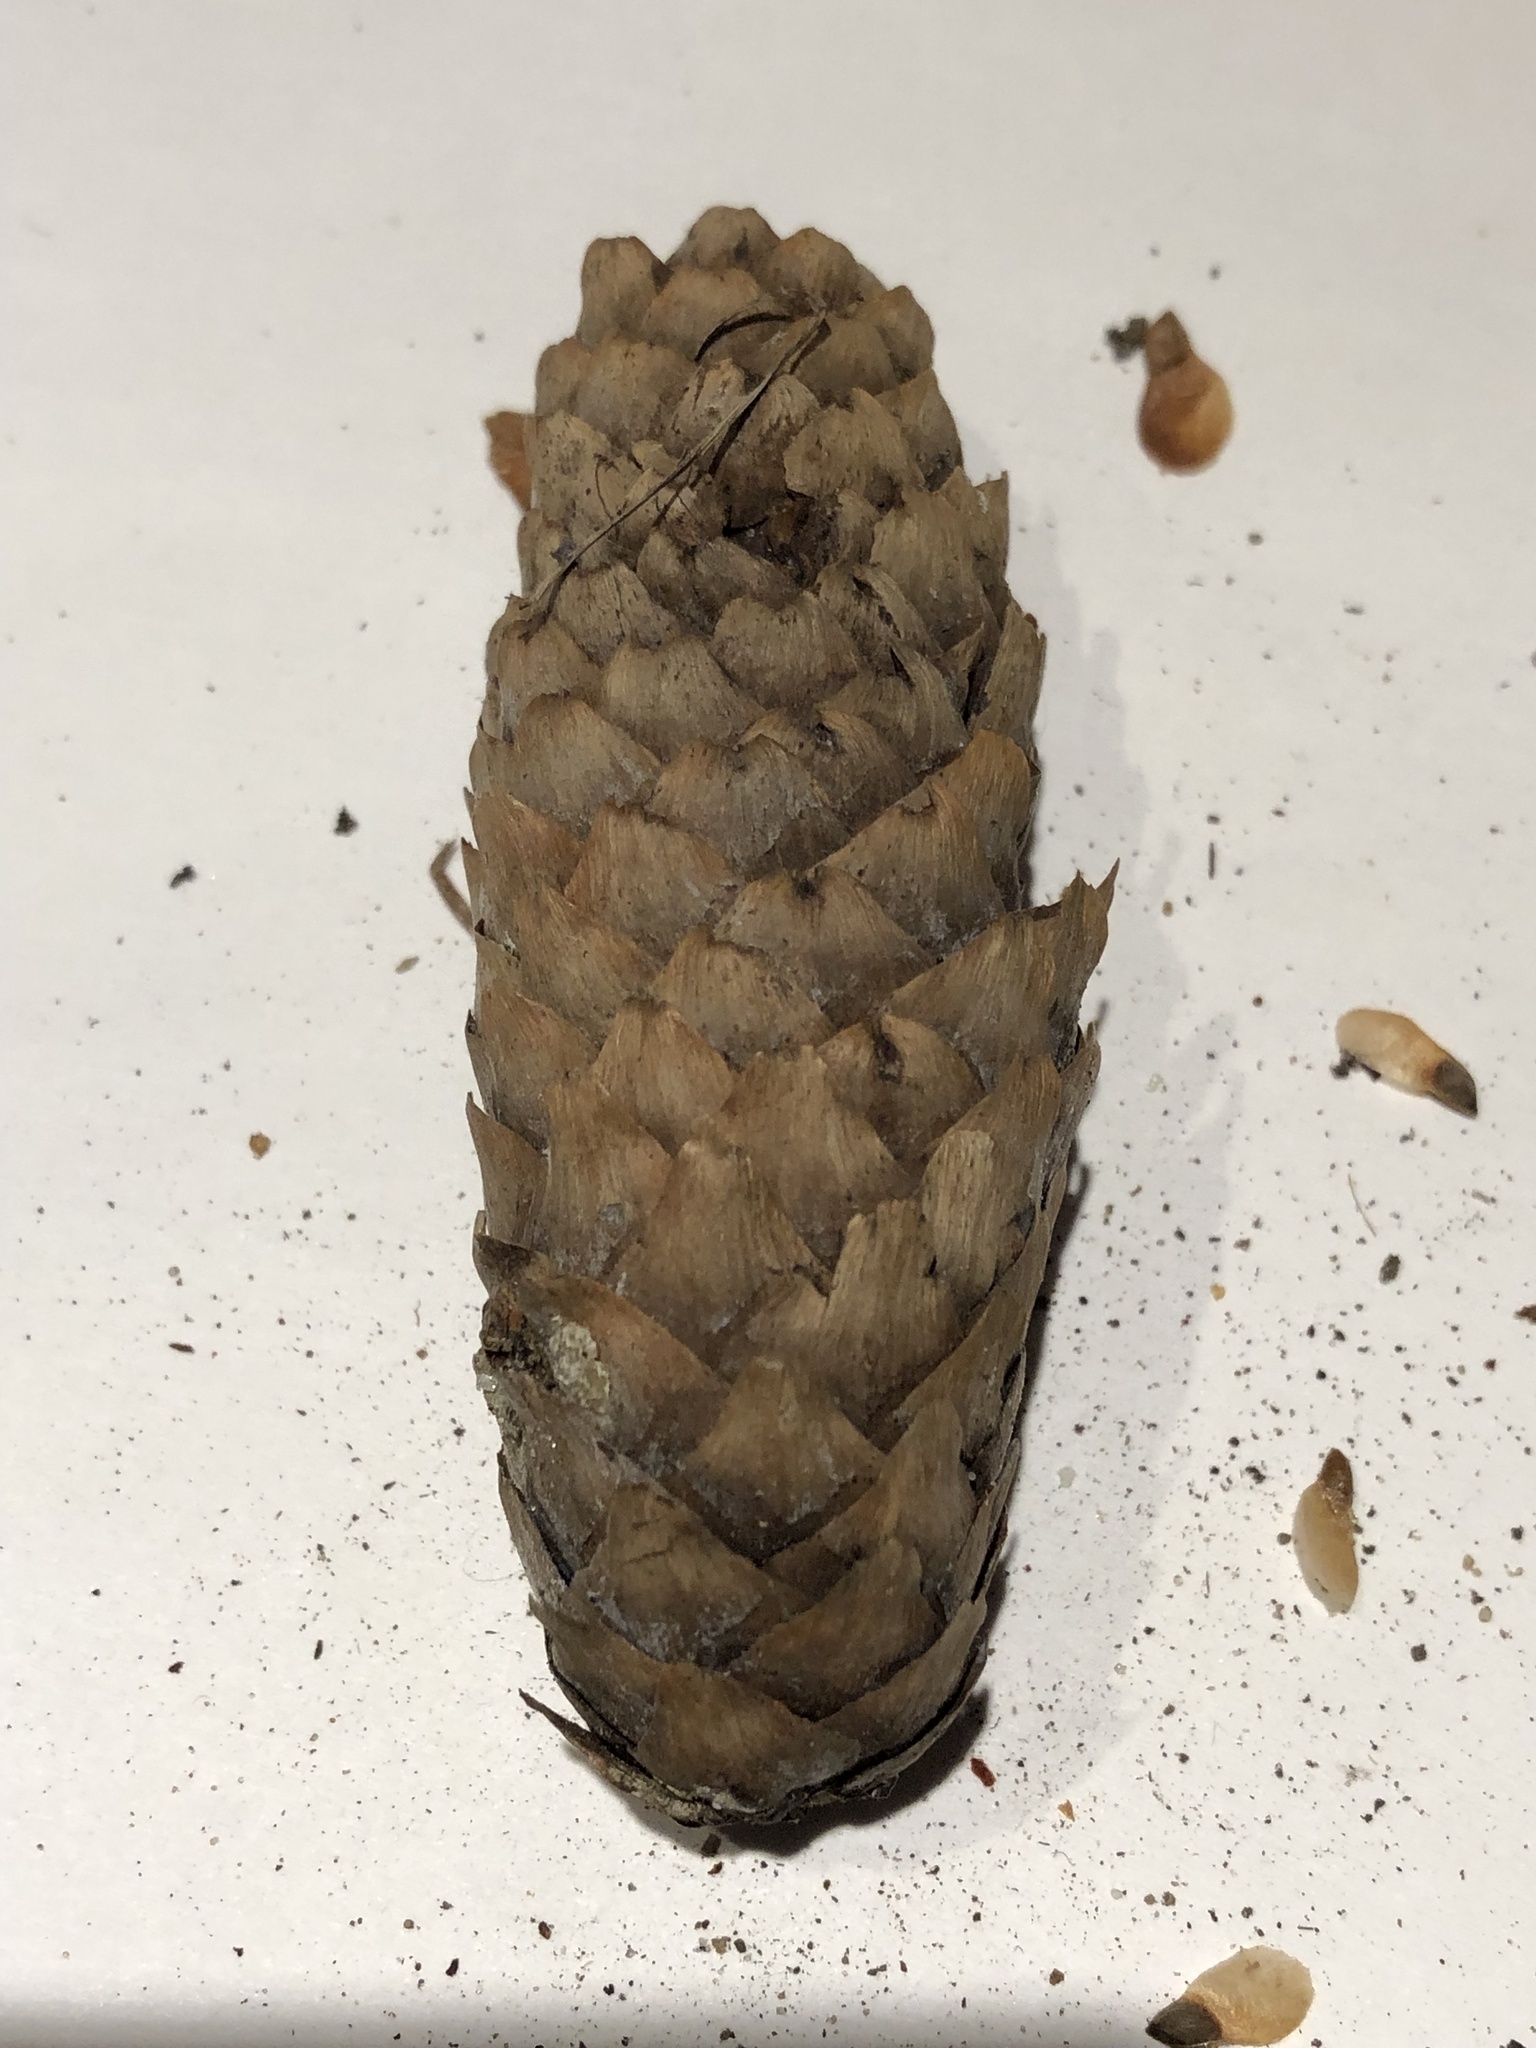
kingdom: Plantae
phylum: Tracheophyta
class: Pinopsida
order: Pinales
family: Pinaceae
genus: Picea
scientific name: Picea abies
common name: Norway spruce
